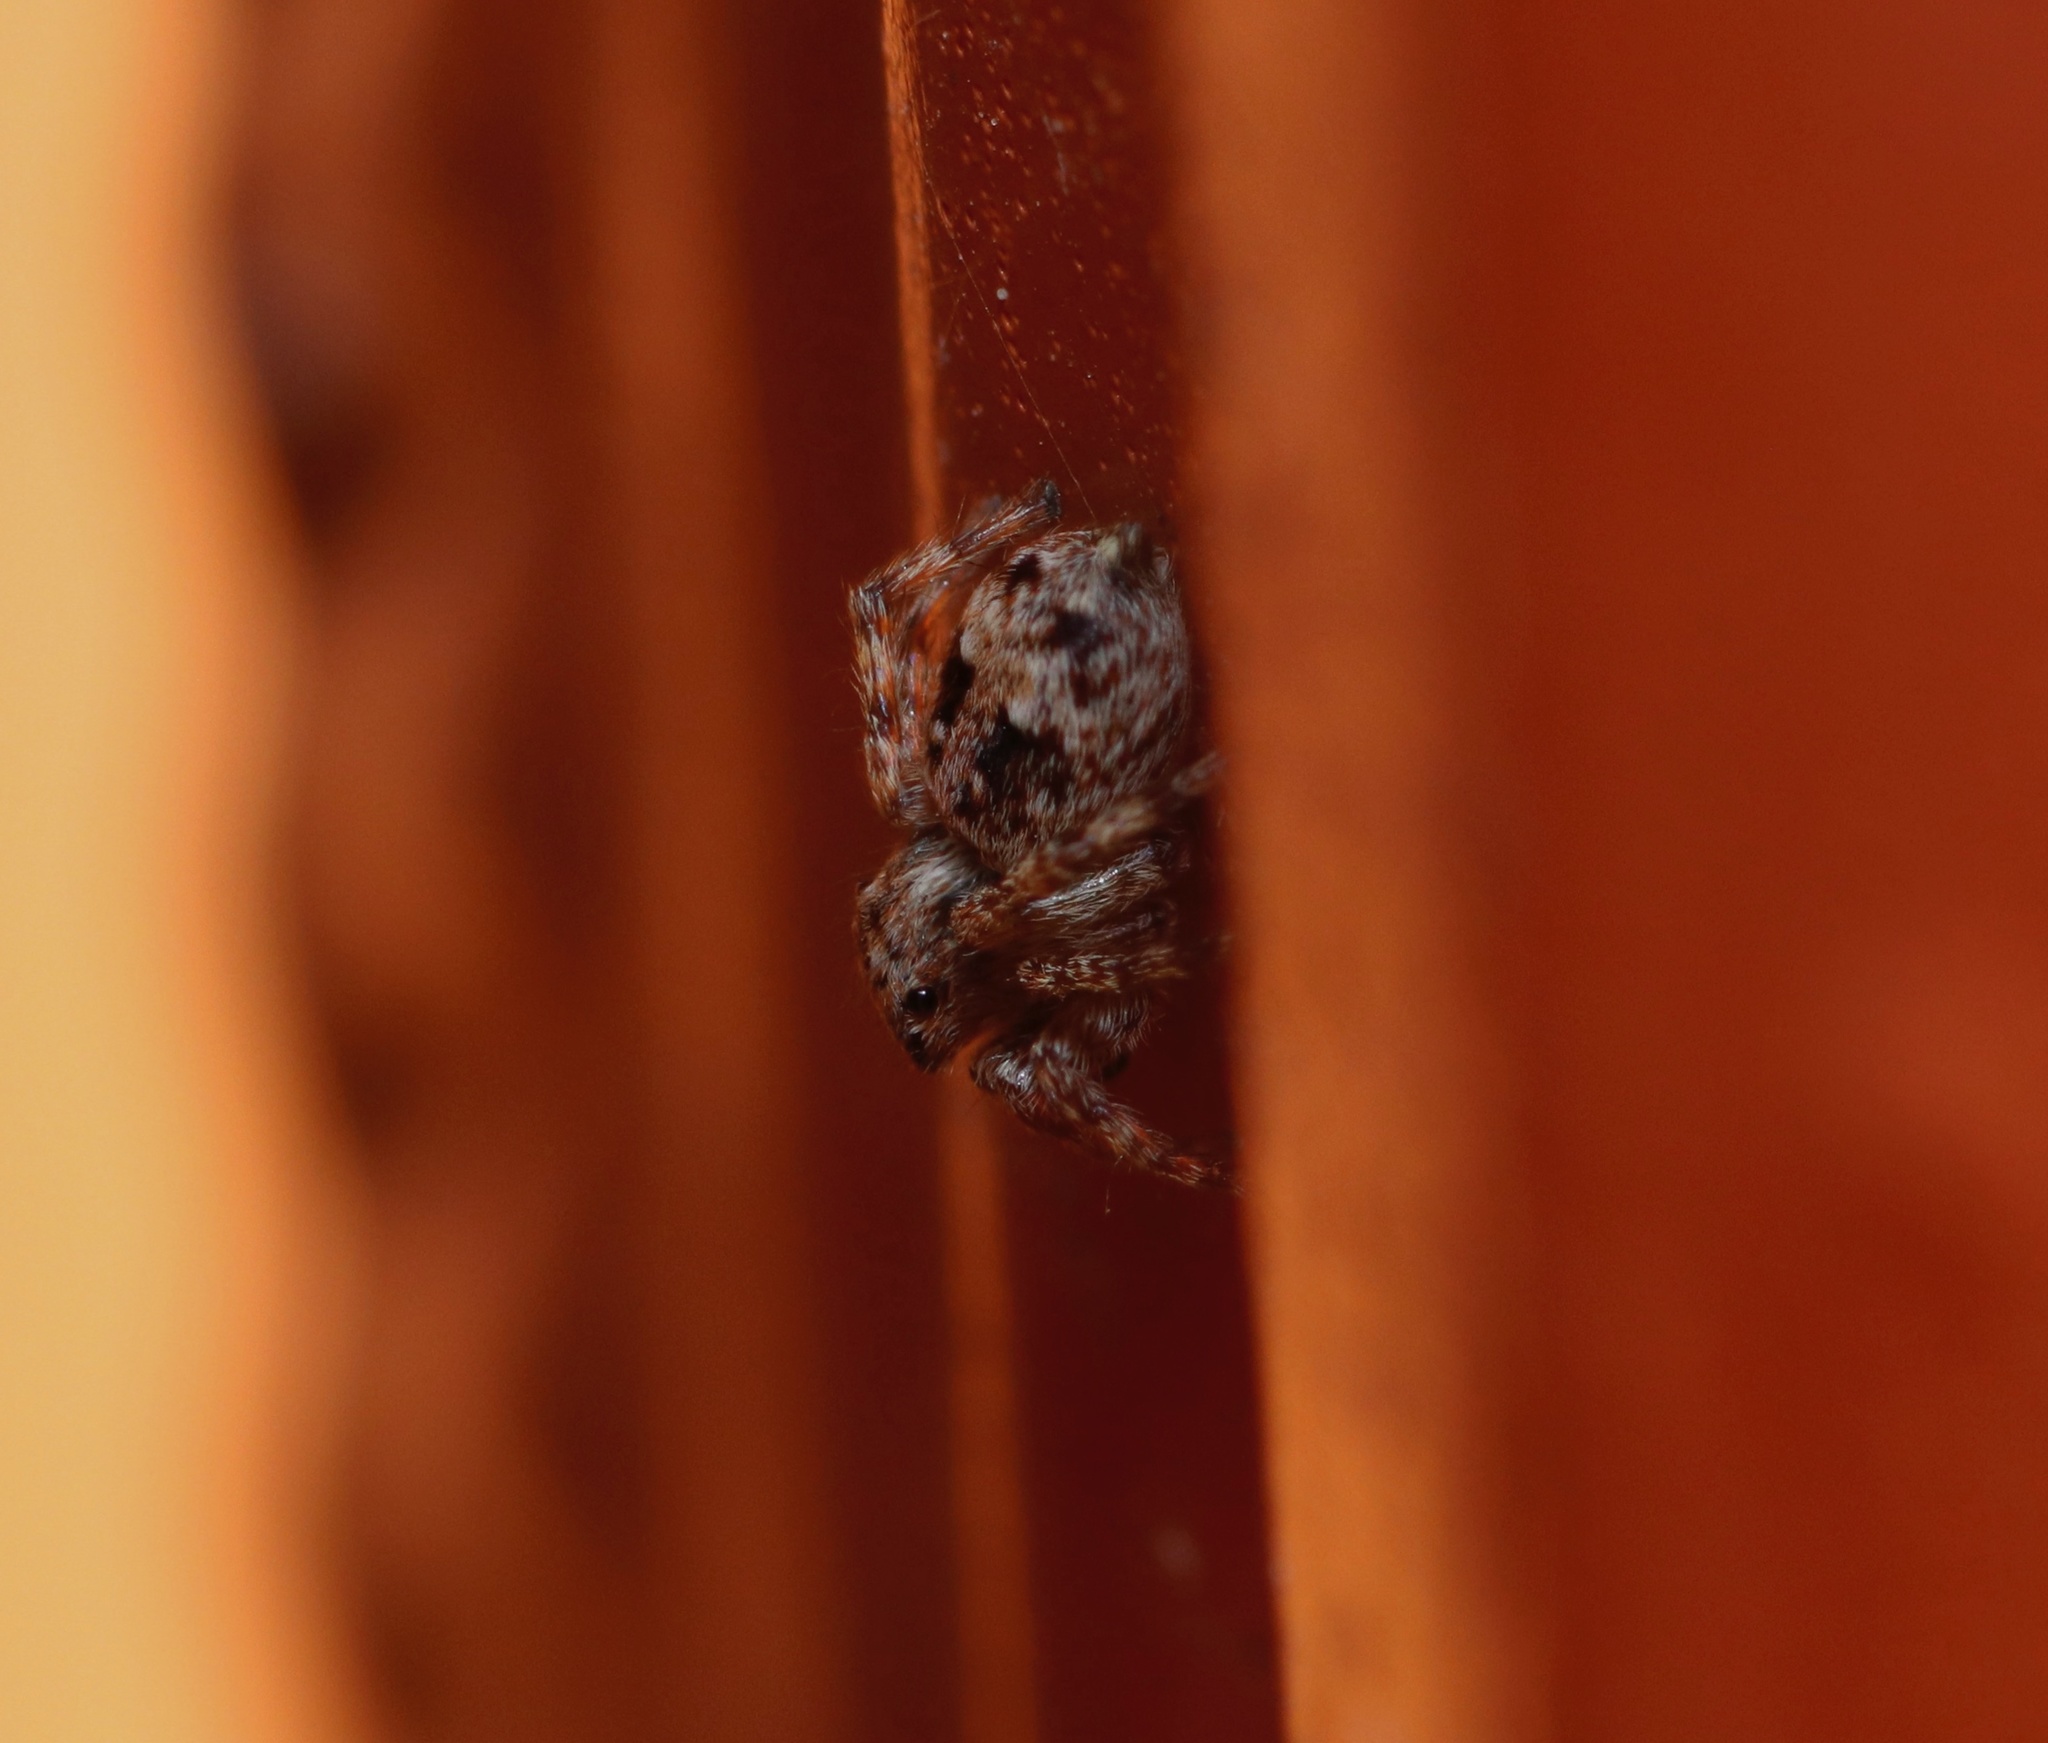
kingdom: Animalia
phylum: Arthropoda
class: Arachnida
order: Araneae
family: Salticidae
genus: Attulus
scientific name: Attulus fasciger
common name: Asiatic wall jumping spider
